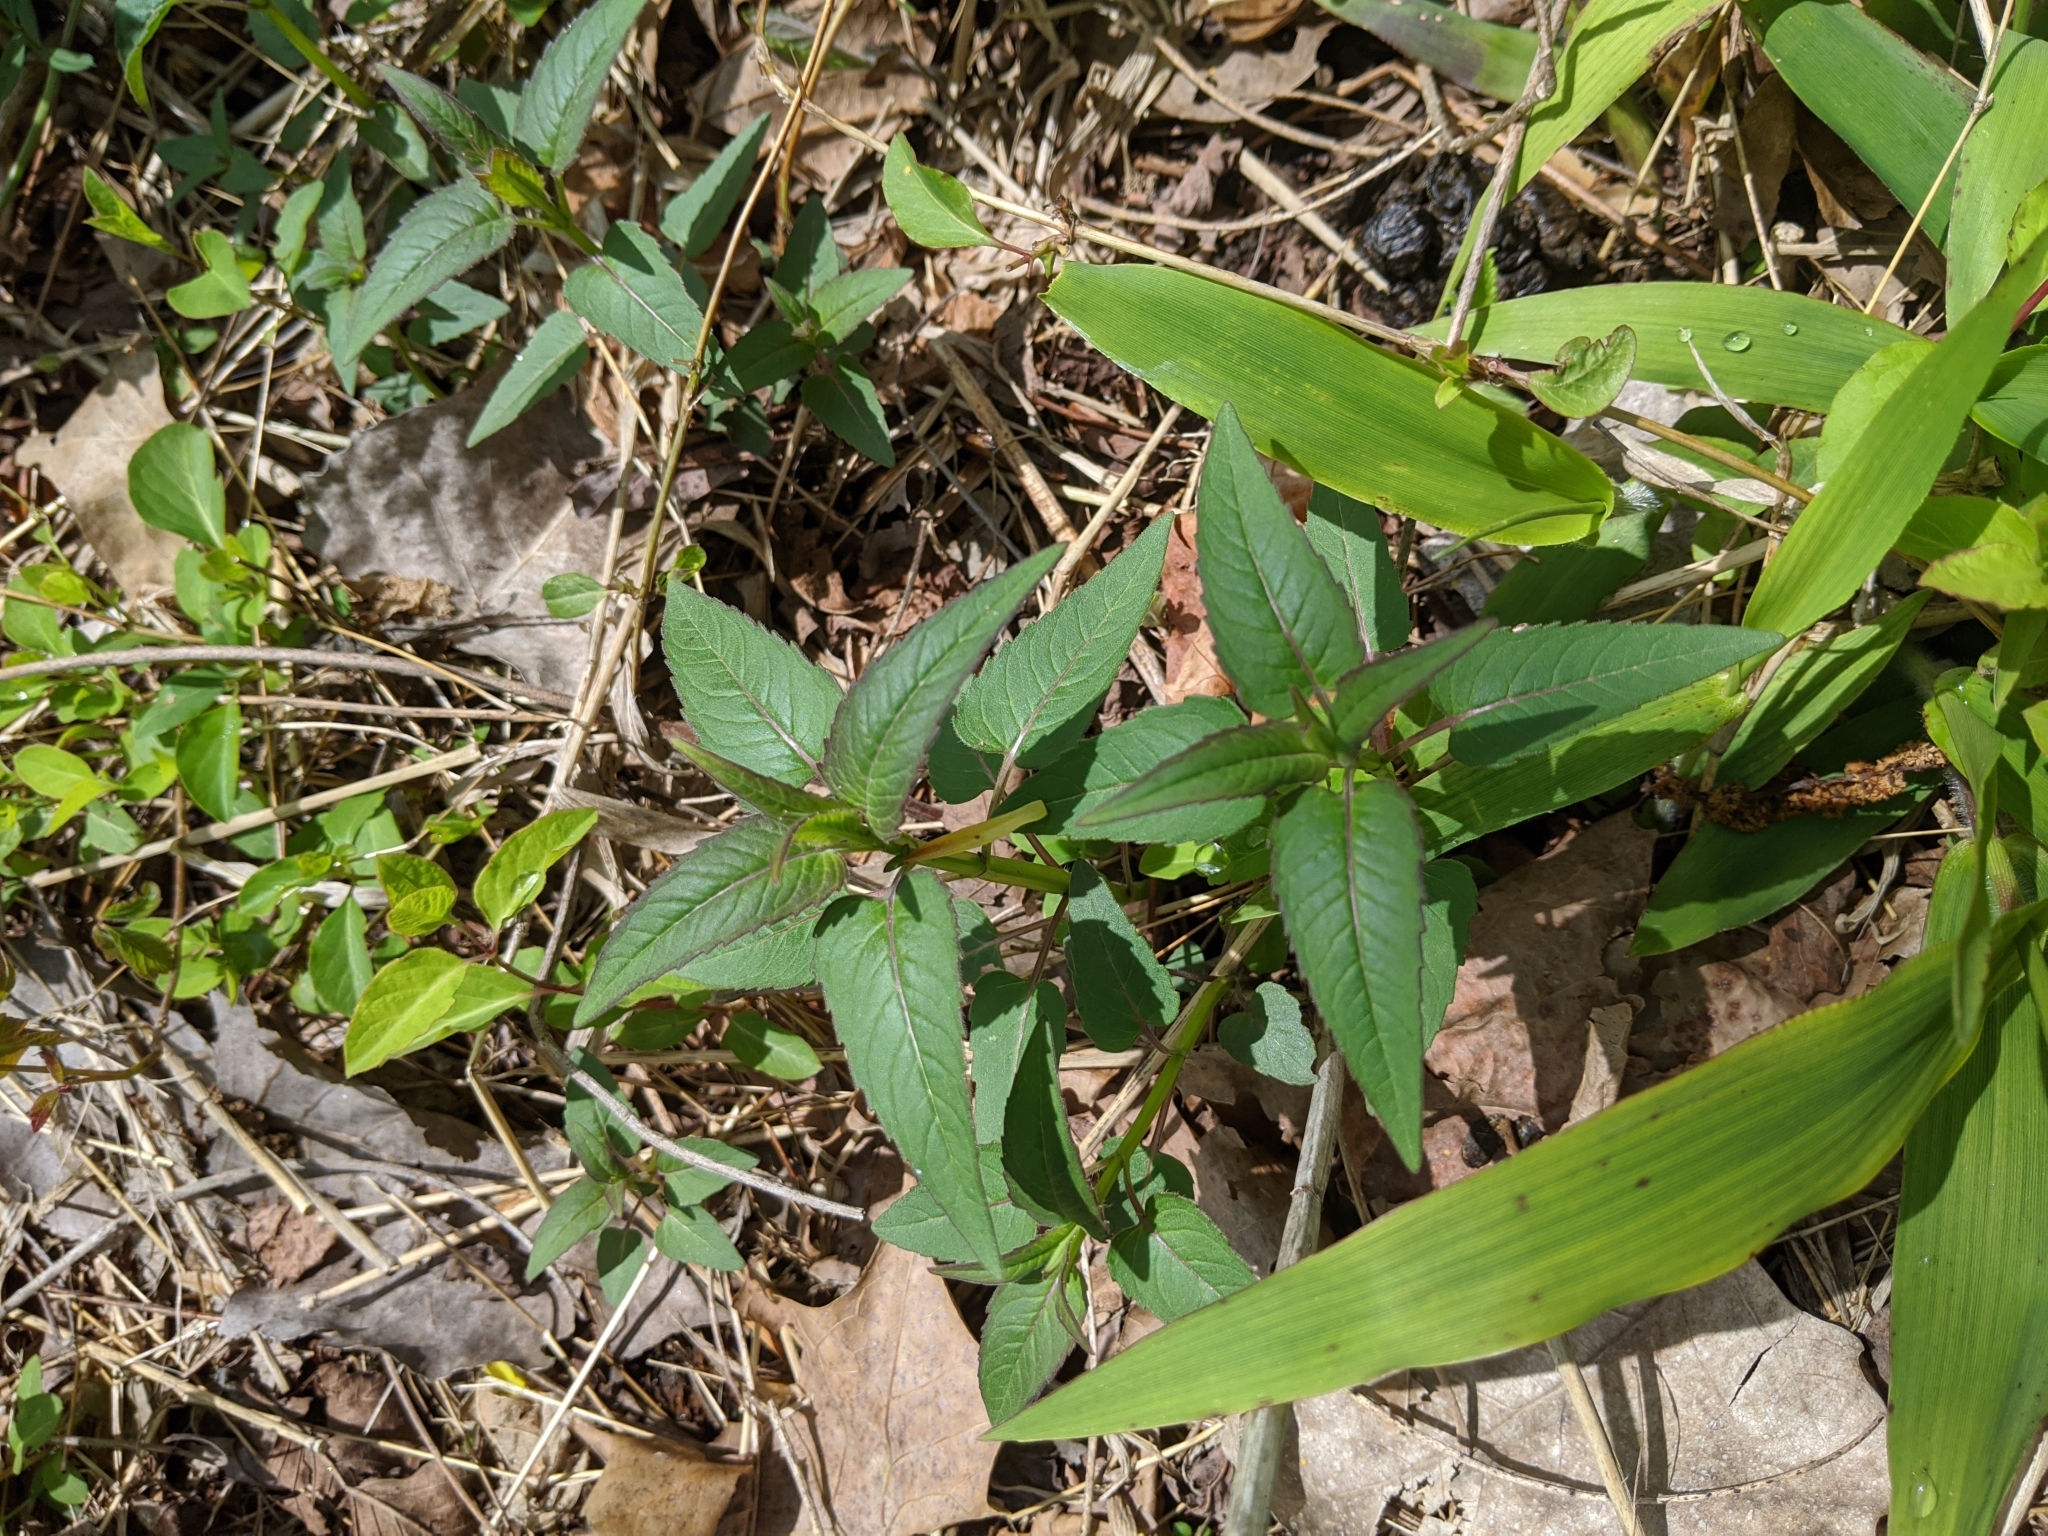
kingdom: Plantae
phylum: Tracheophyta
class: Magnoliopsida
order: Lamiales
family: Lamiaceae
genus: Monarda
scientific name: Monarda fistulosa
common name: Purple beebalm
